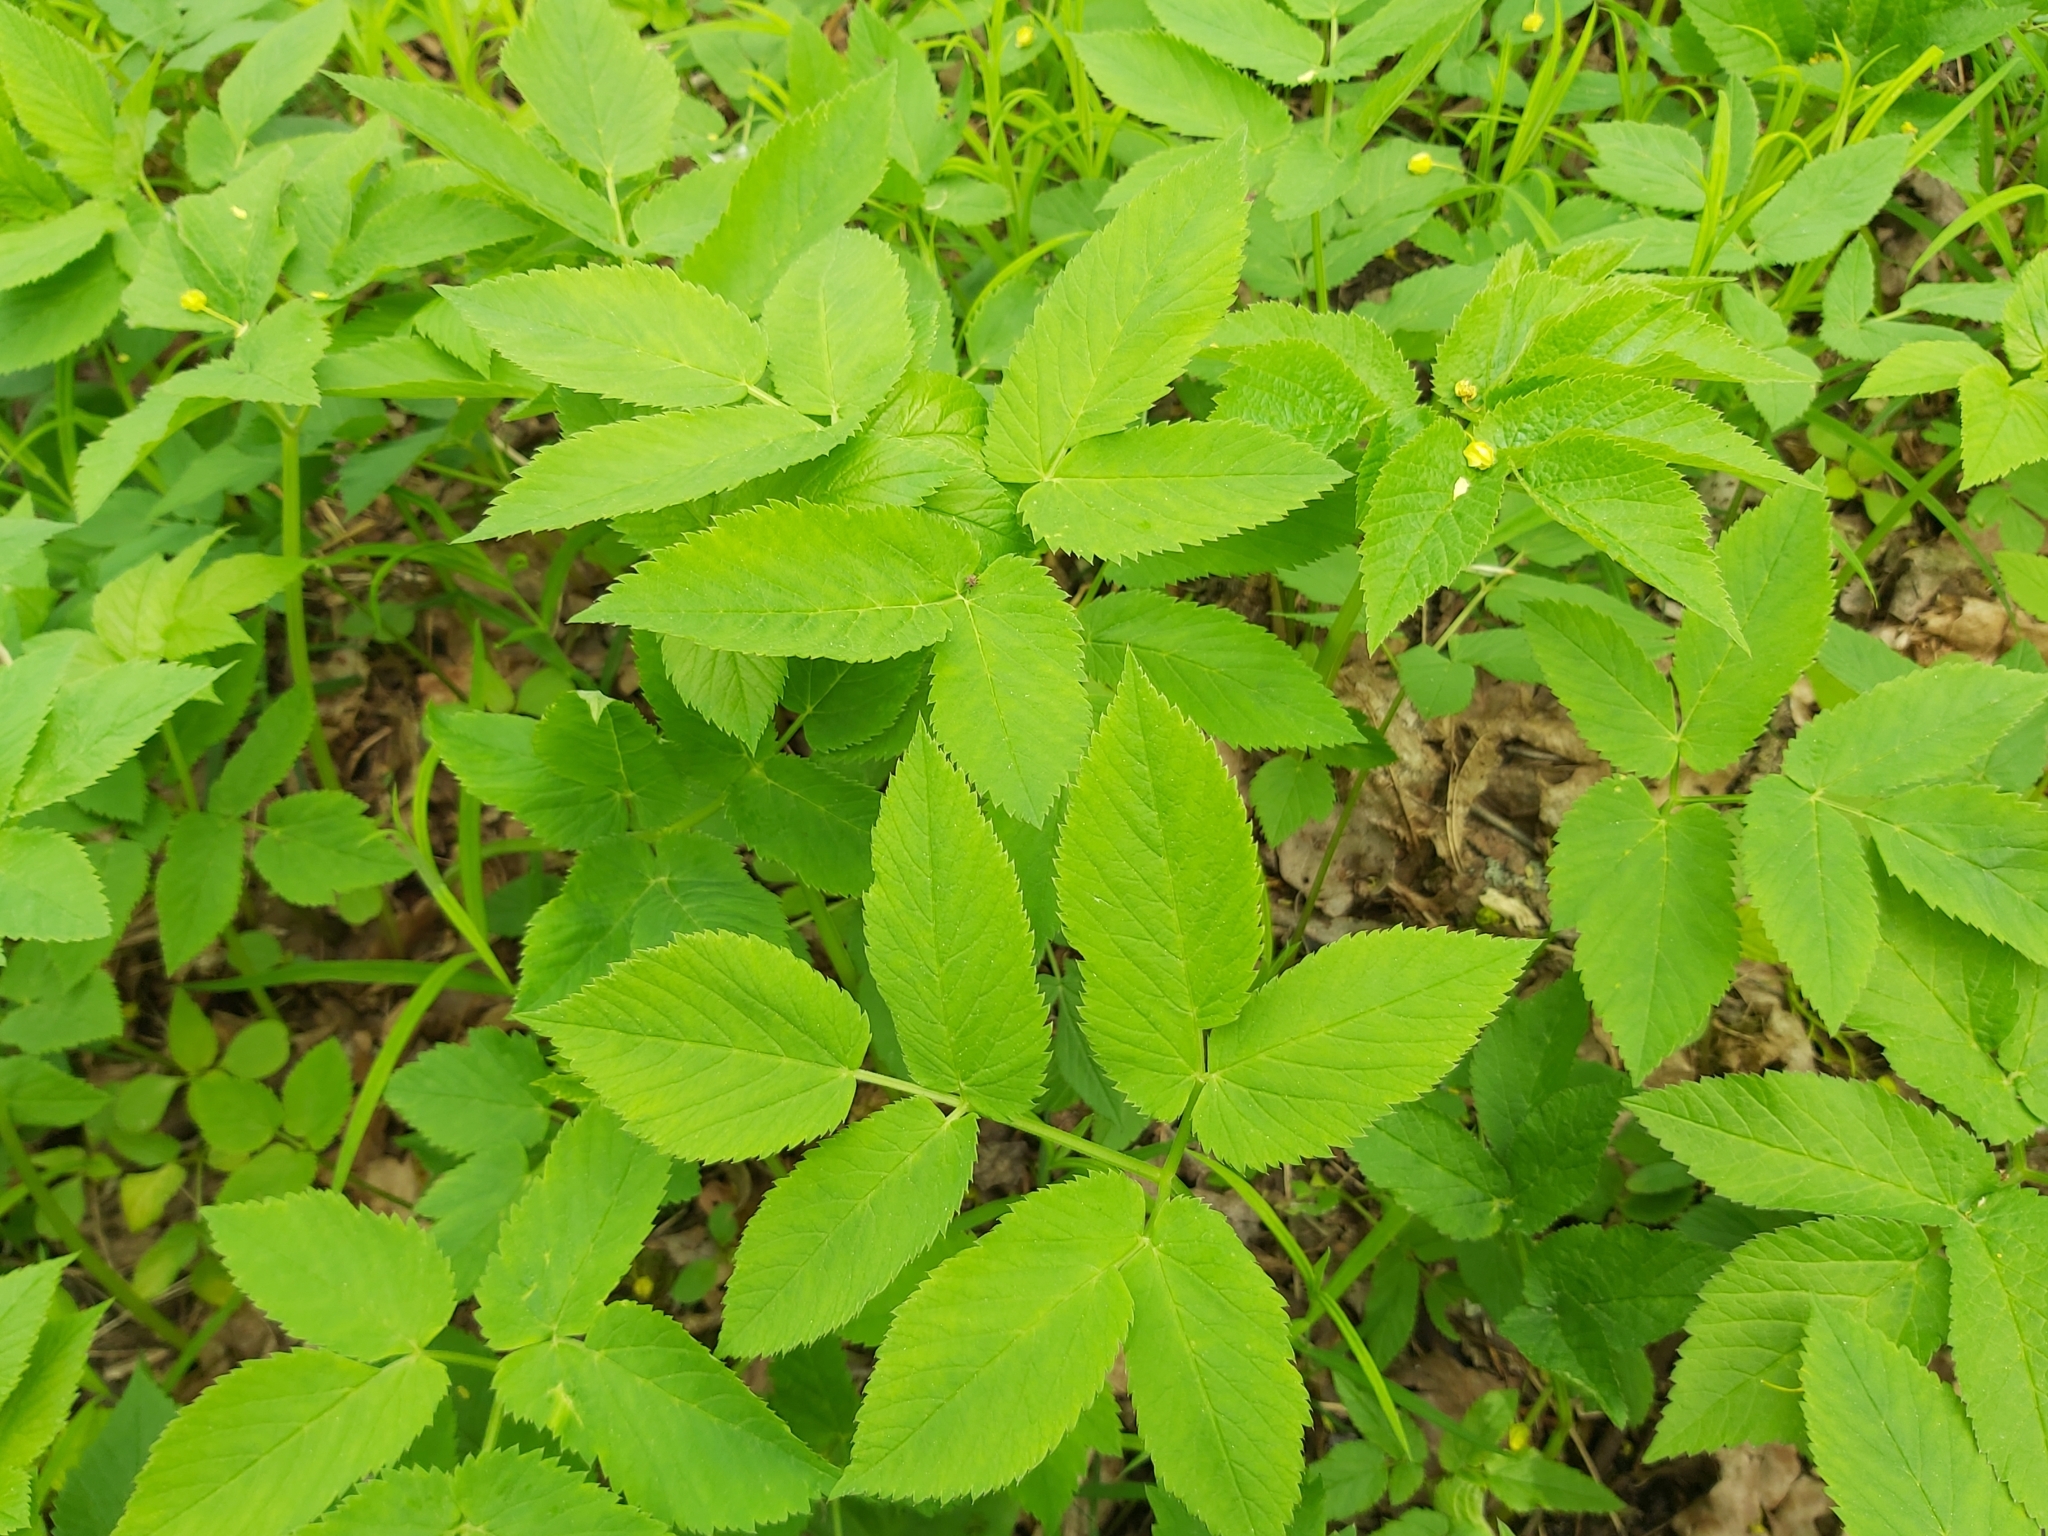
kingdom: Plantae
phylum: Tracheophyta
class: Magnoliopsida
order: Apiales
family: Apiaceae
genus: Aegopodium
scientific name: Aegopodium podagraria
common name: Ground-elder
